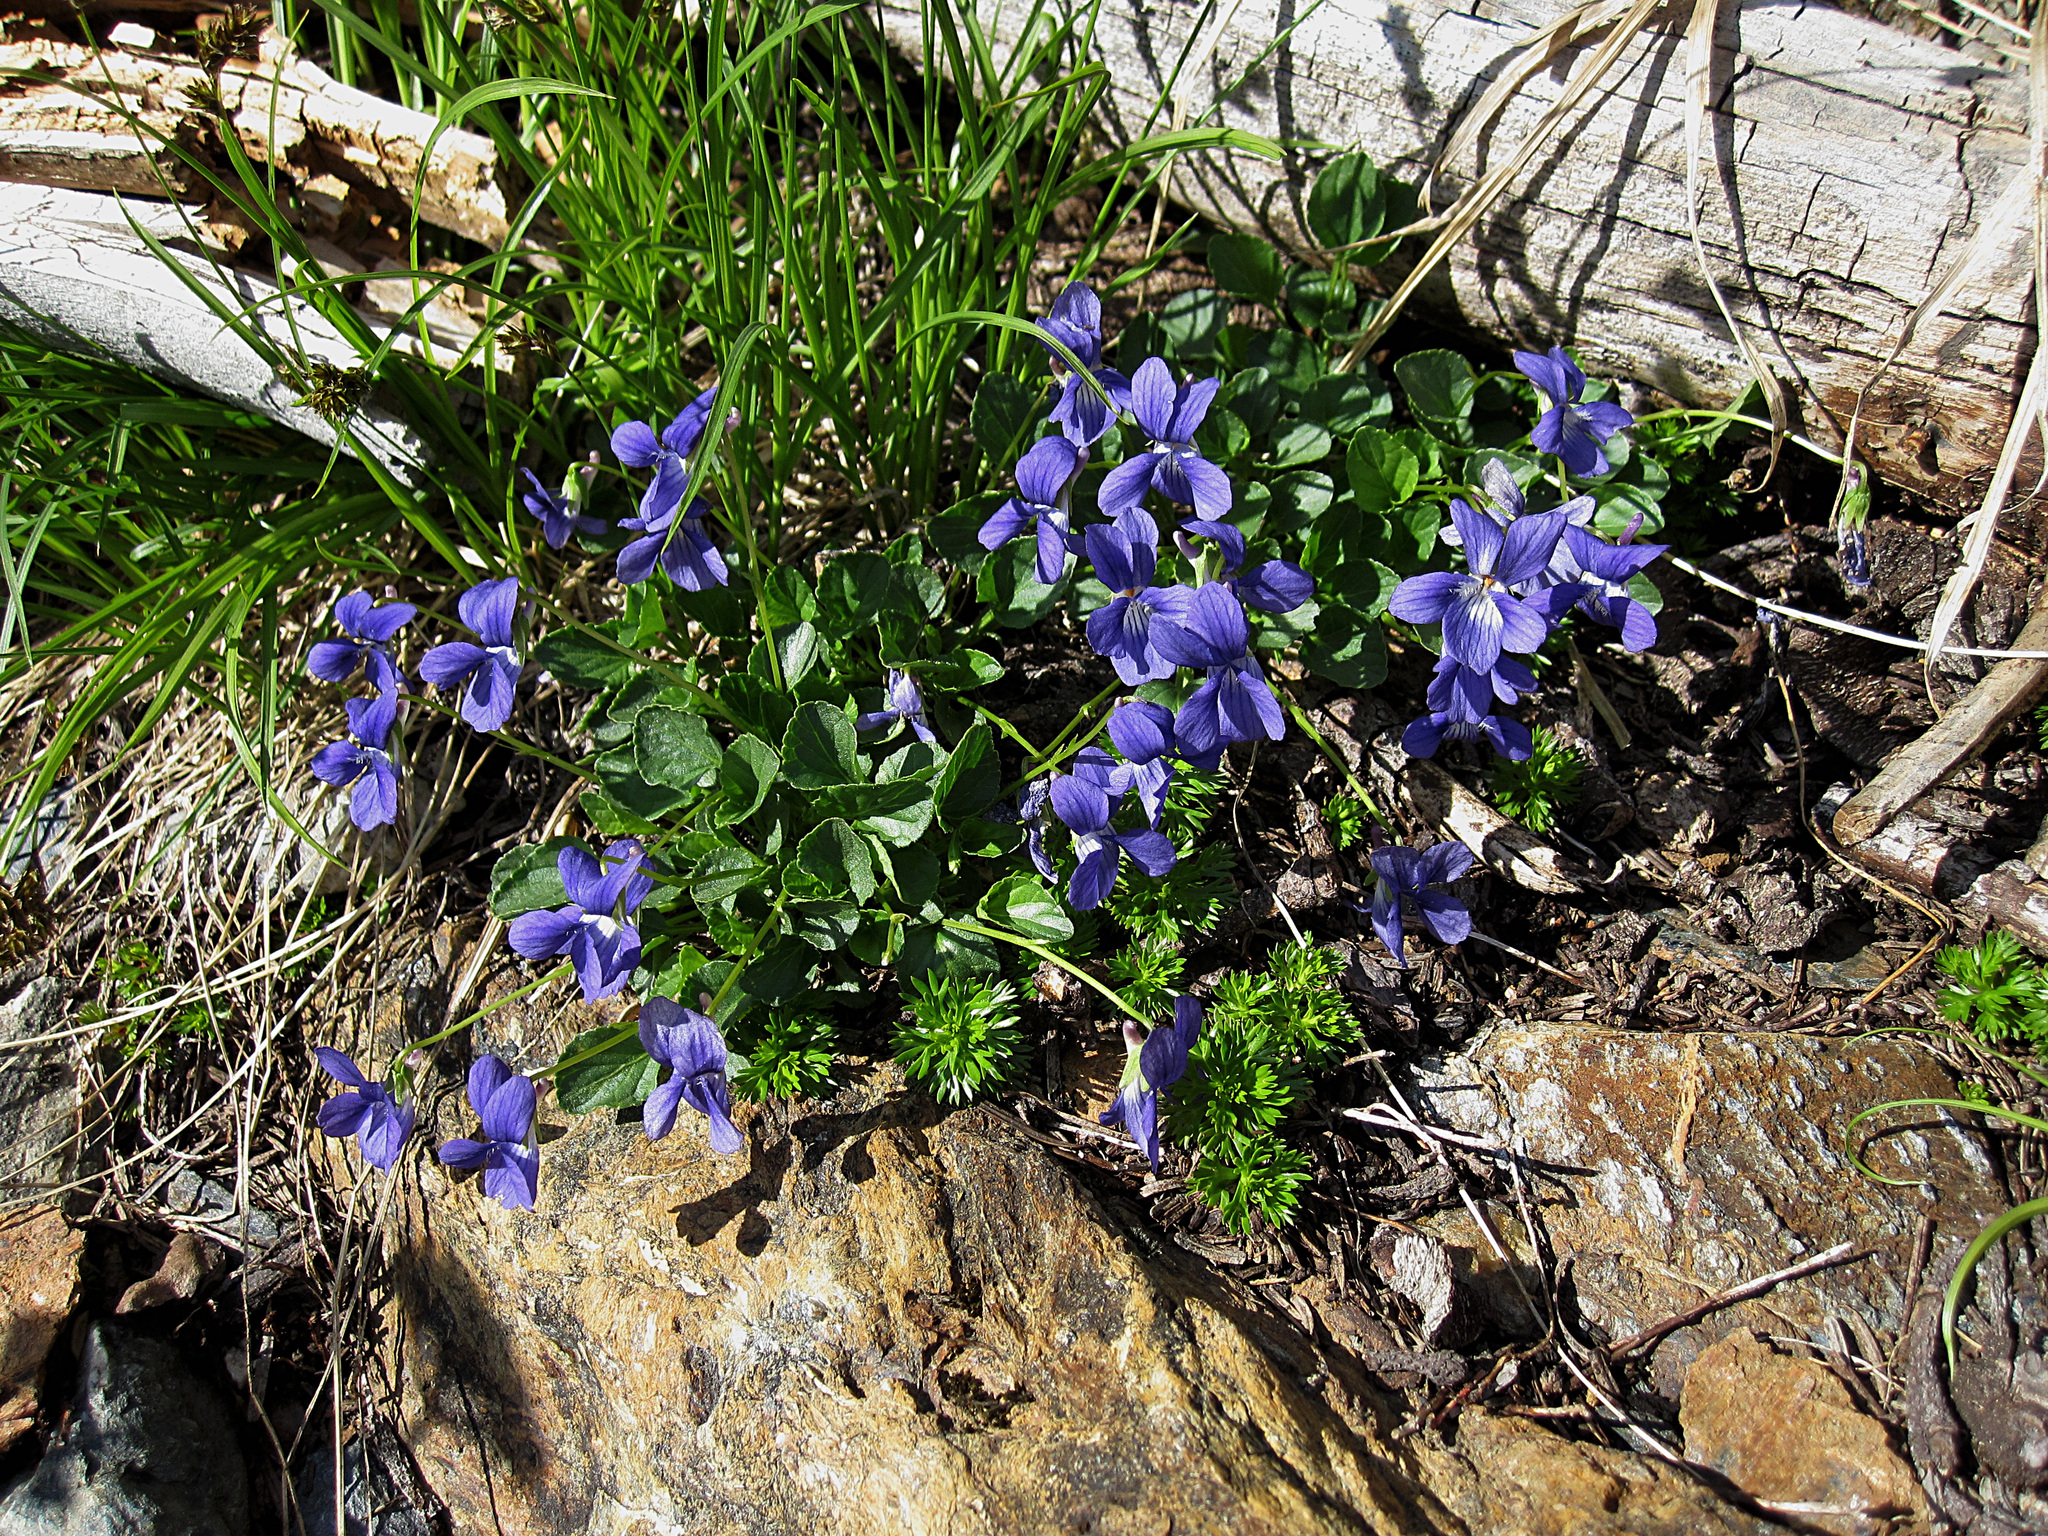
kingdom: Plantae
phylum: Tracheophyta
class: Magnoliopsida
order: Malpighiales
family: Violaceae
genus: Viola
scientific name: Viola adunca
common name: Sand violet
